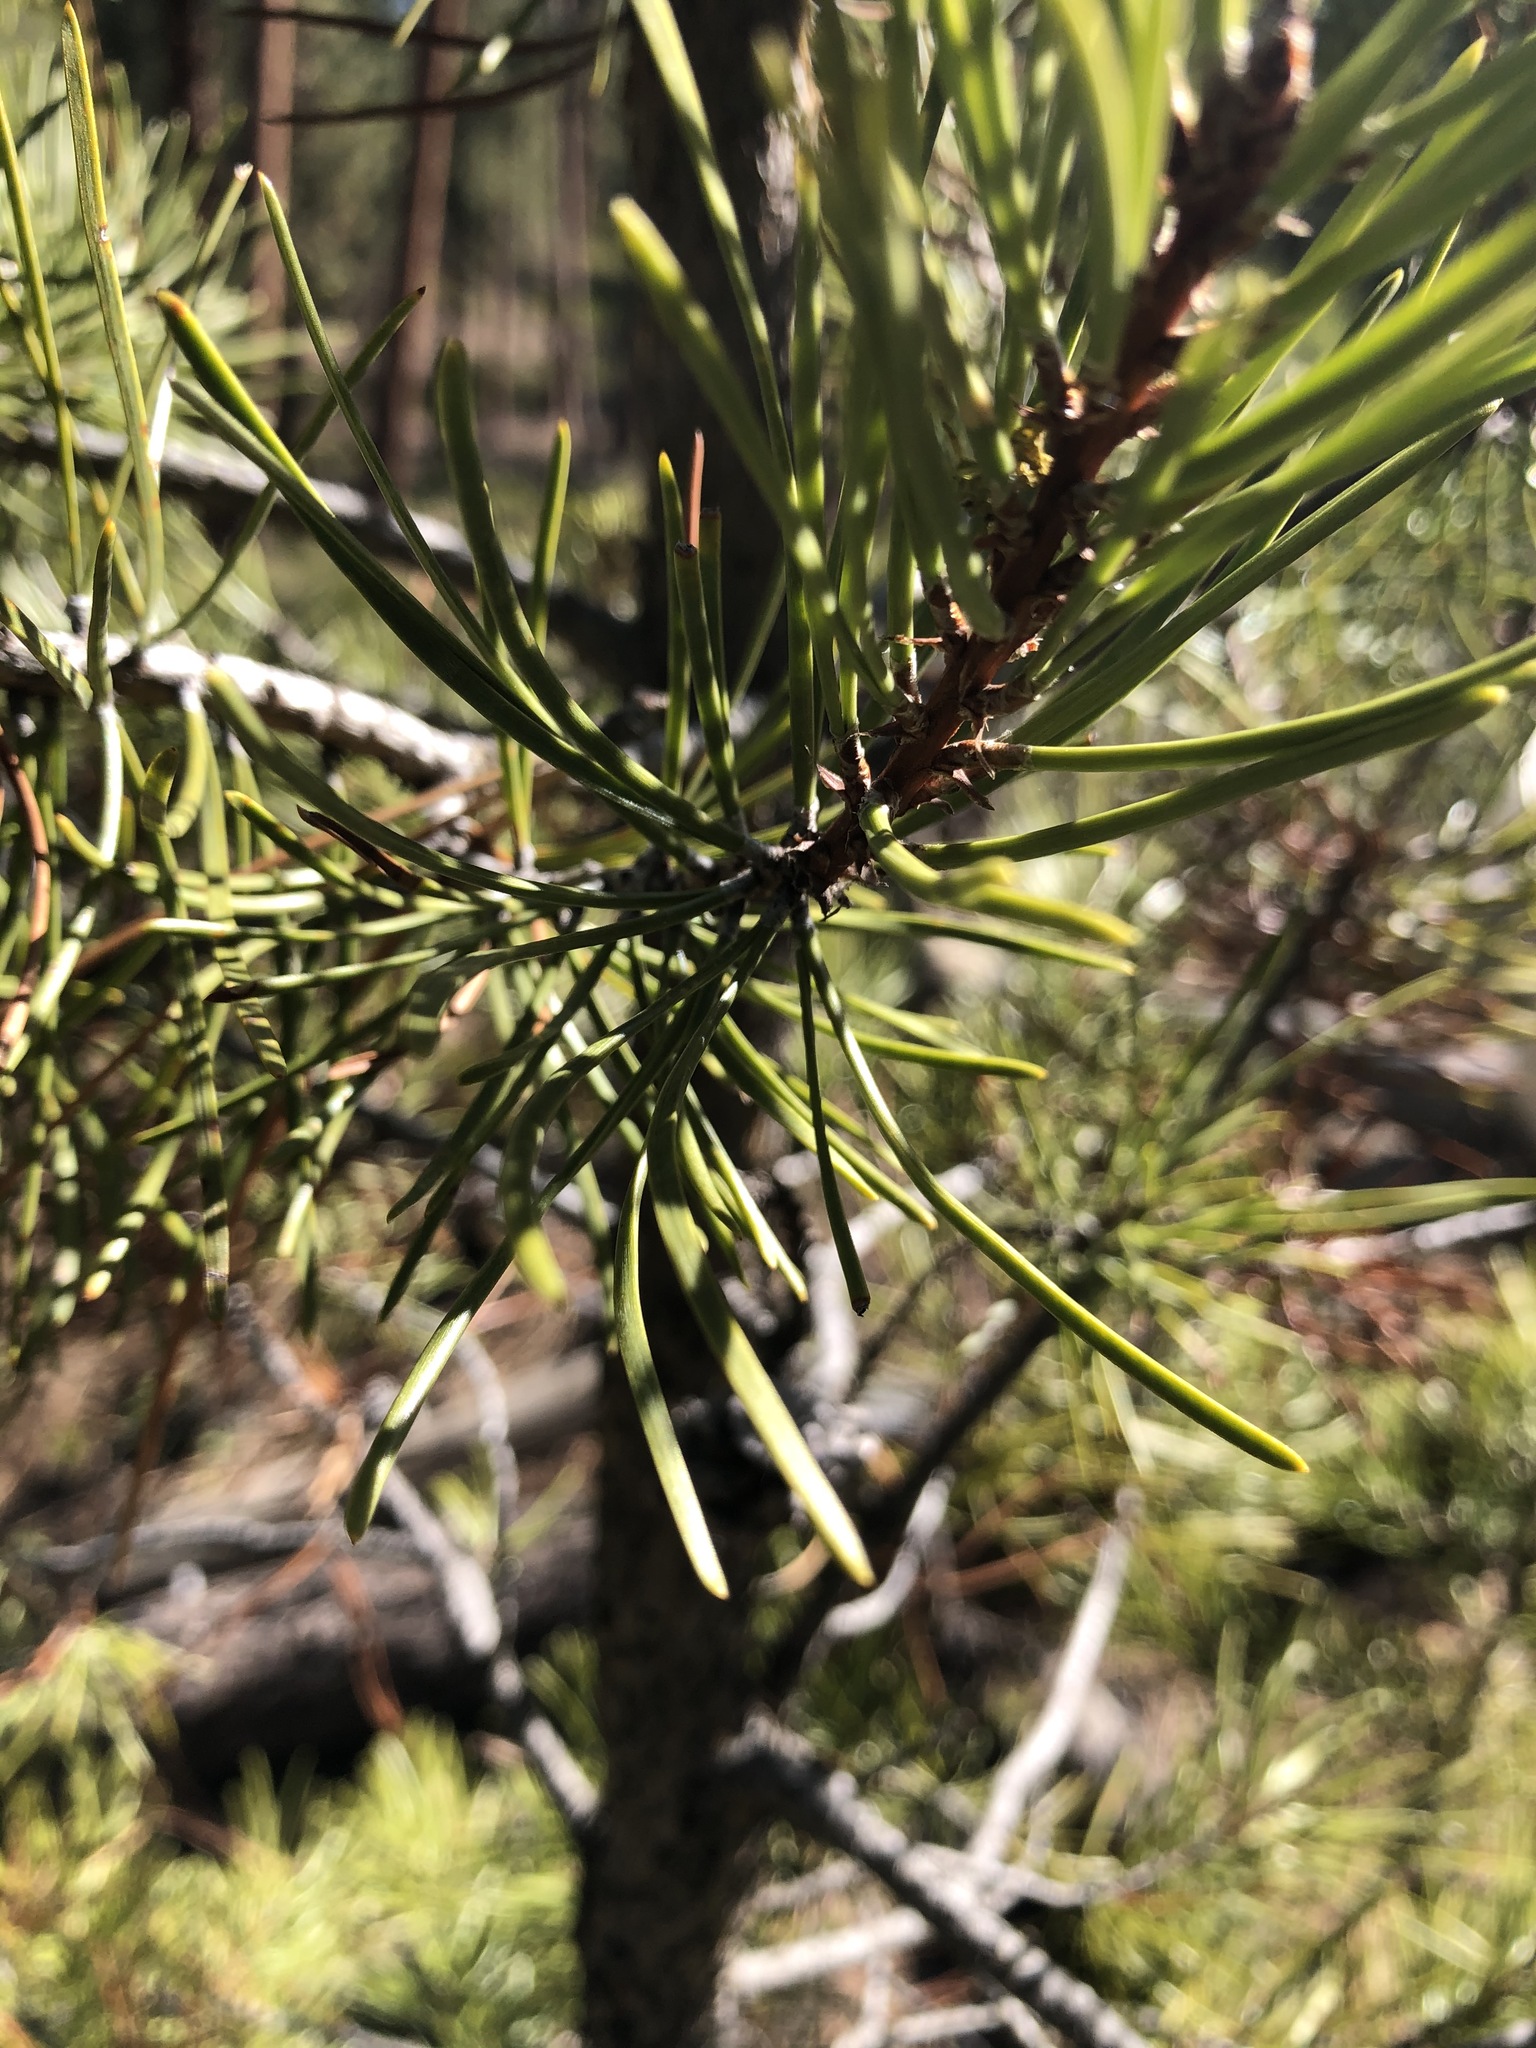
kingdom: Plantae
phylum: Tracheophyta
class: Pinopsida
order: Pinales
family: Pinaceae
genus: Pinus
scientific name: Pinus contorta
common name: Lodgepole pine
